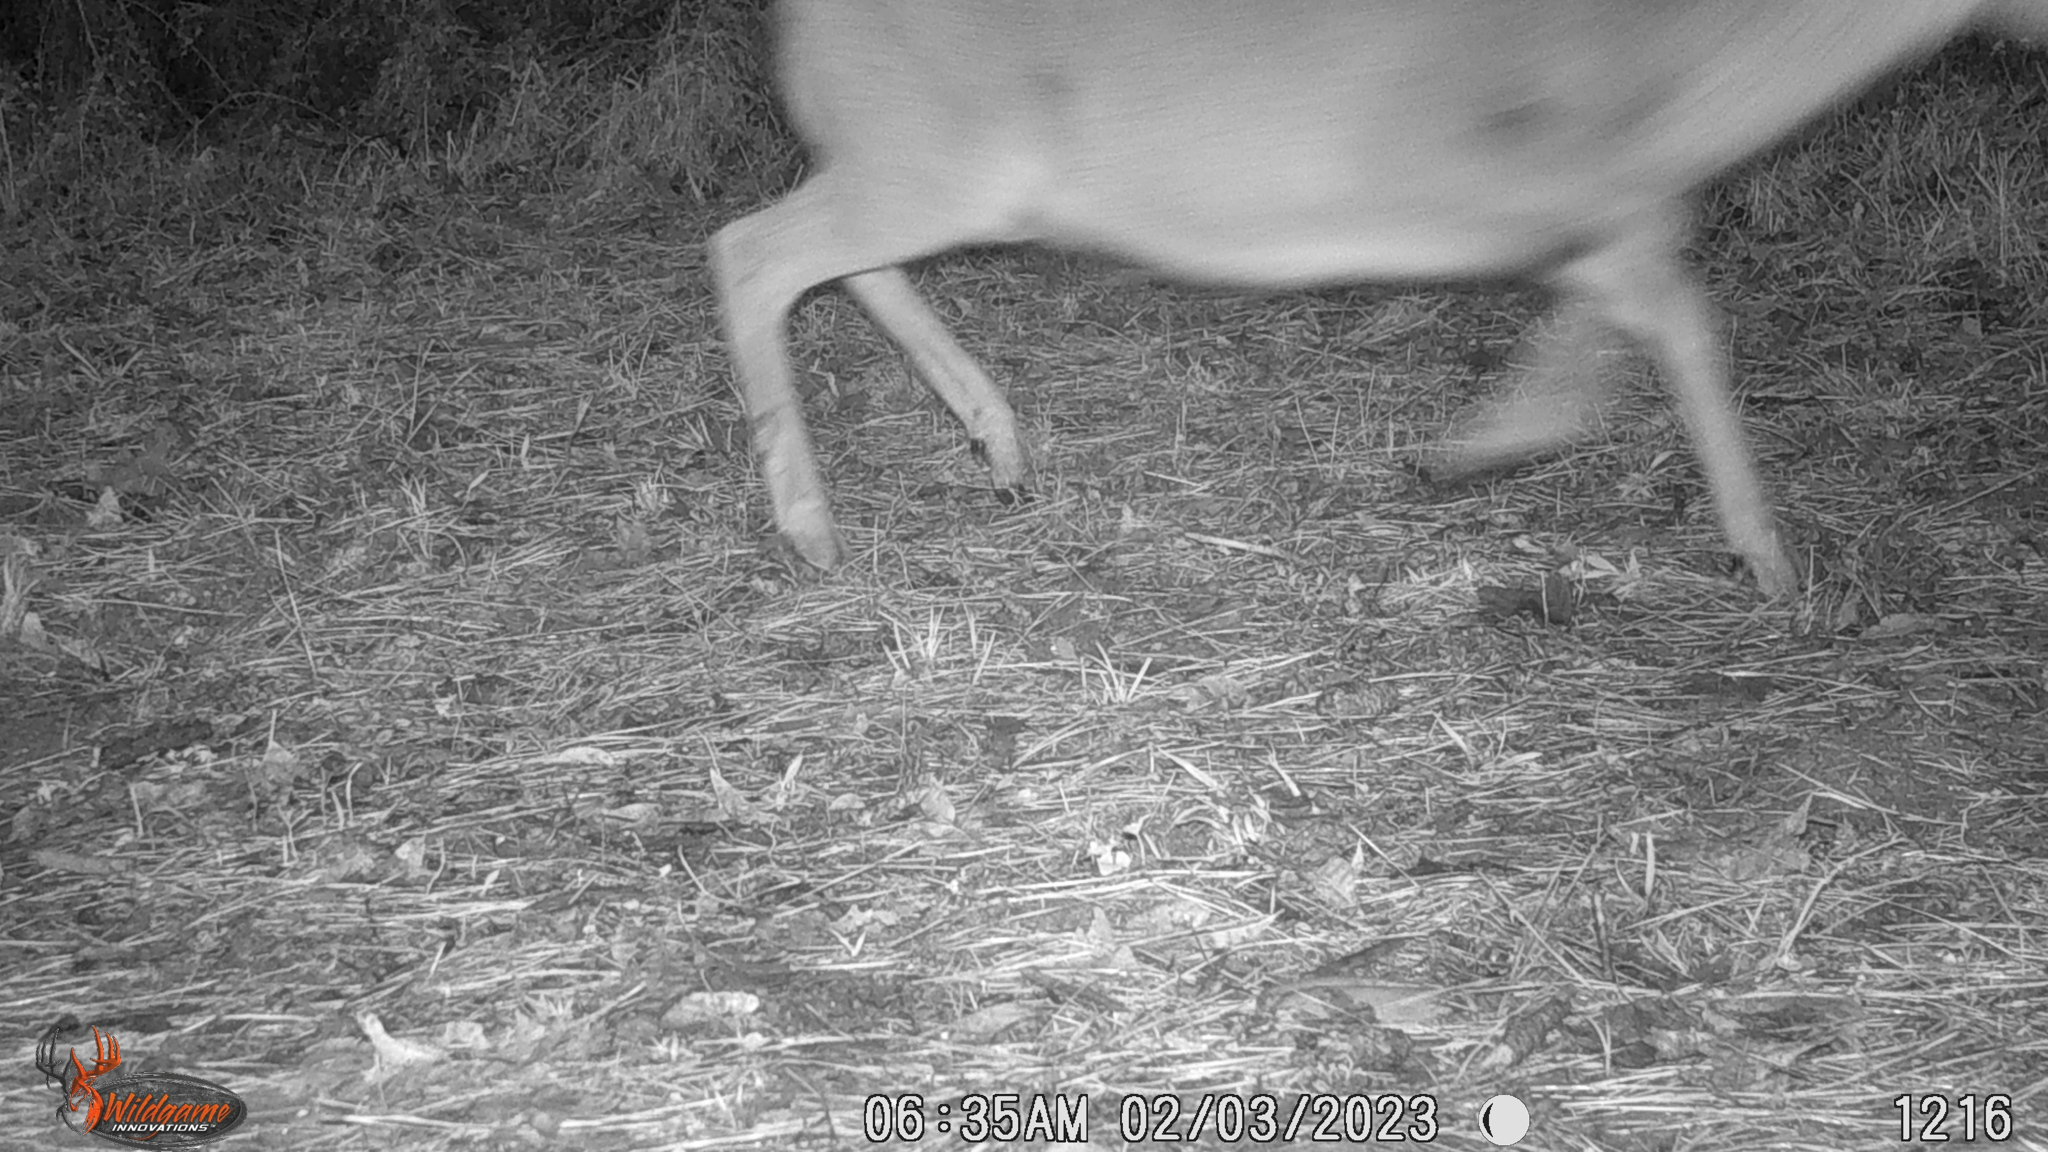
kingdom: Animalia
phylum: Chordata
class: Mammalia
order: Artiodactyla
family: Cervidae
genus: Odocoileus
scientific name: Odocoileus virginianus
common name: White-tailed deer
